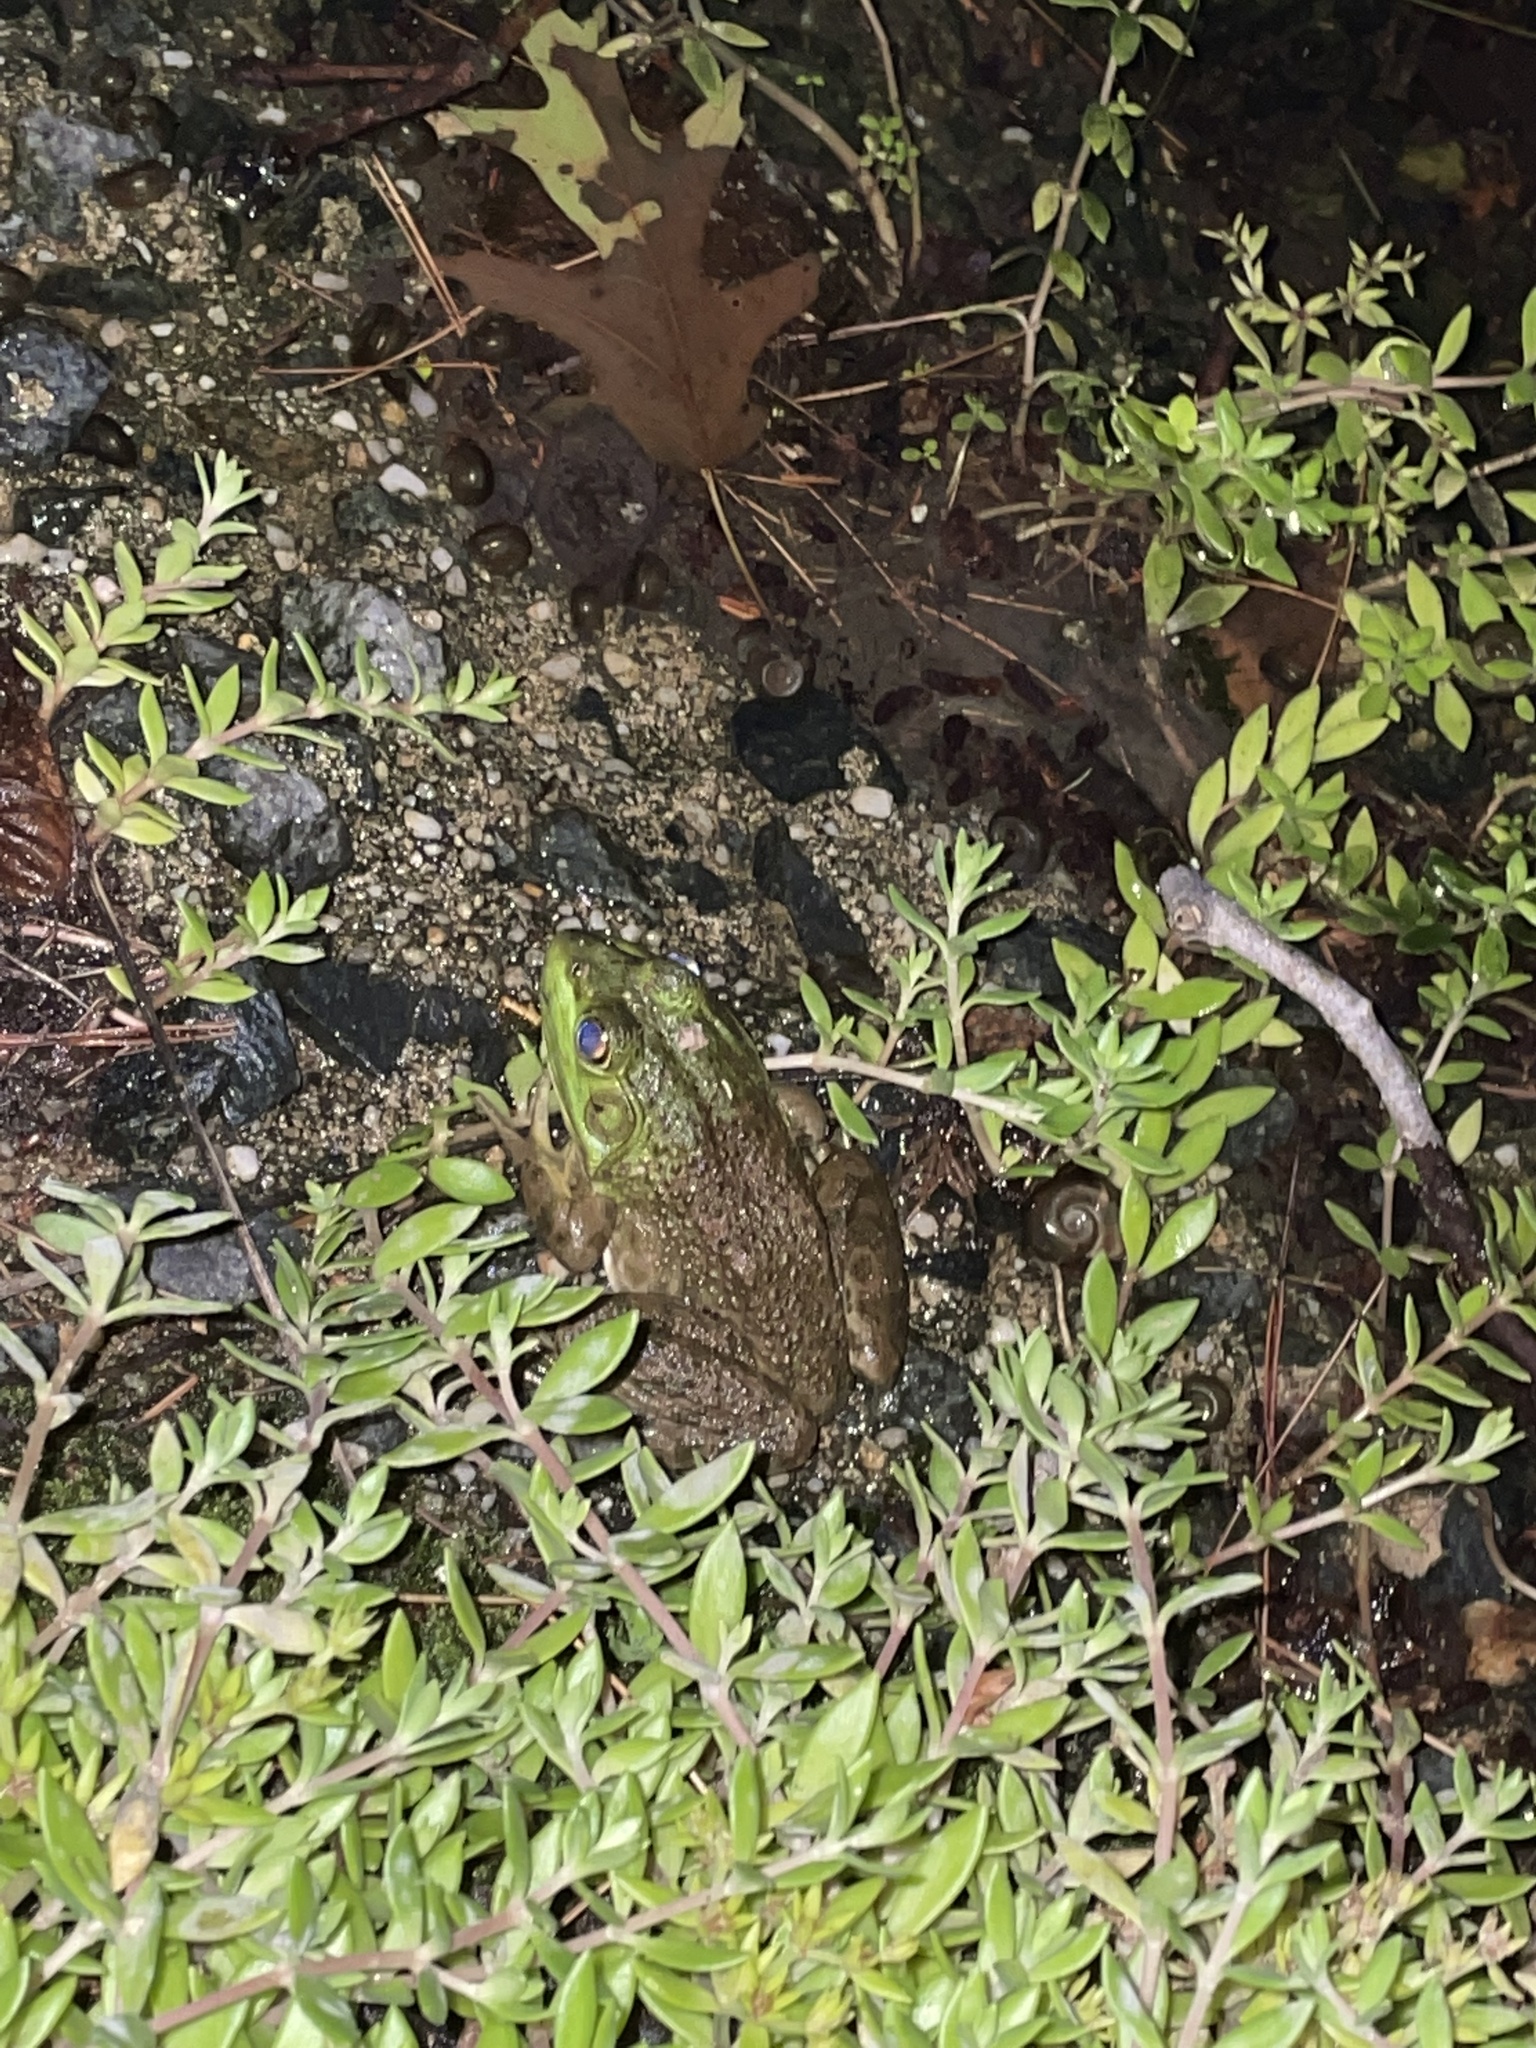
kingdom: Animalia
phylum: Chordata
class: Amphibia
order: Anura
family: Ranidae
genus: Lithobates
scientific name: Lithobates catesbeianus
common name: American bullfrog
